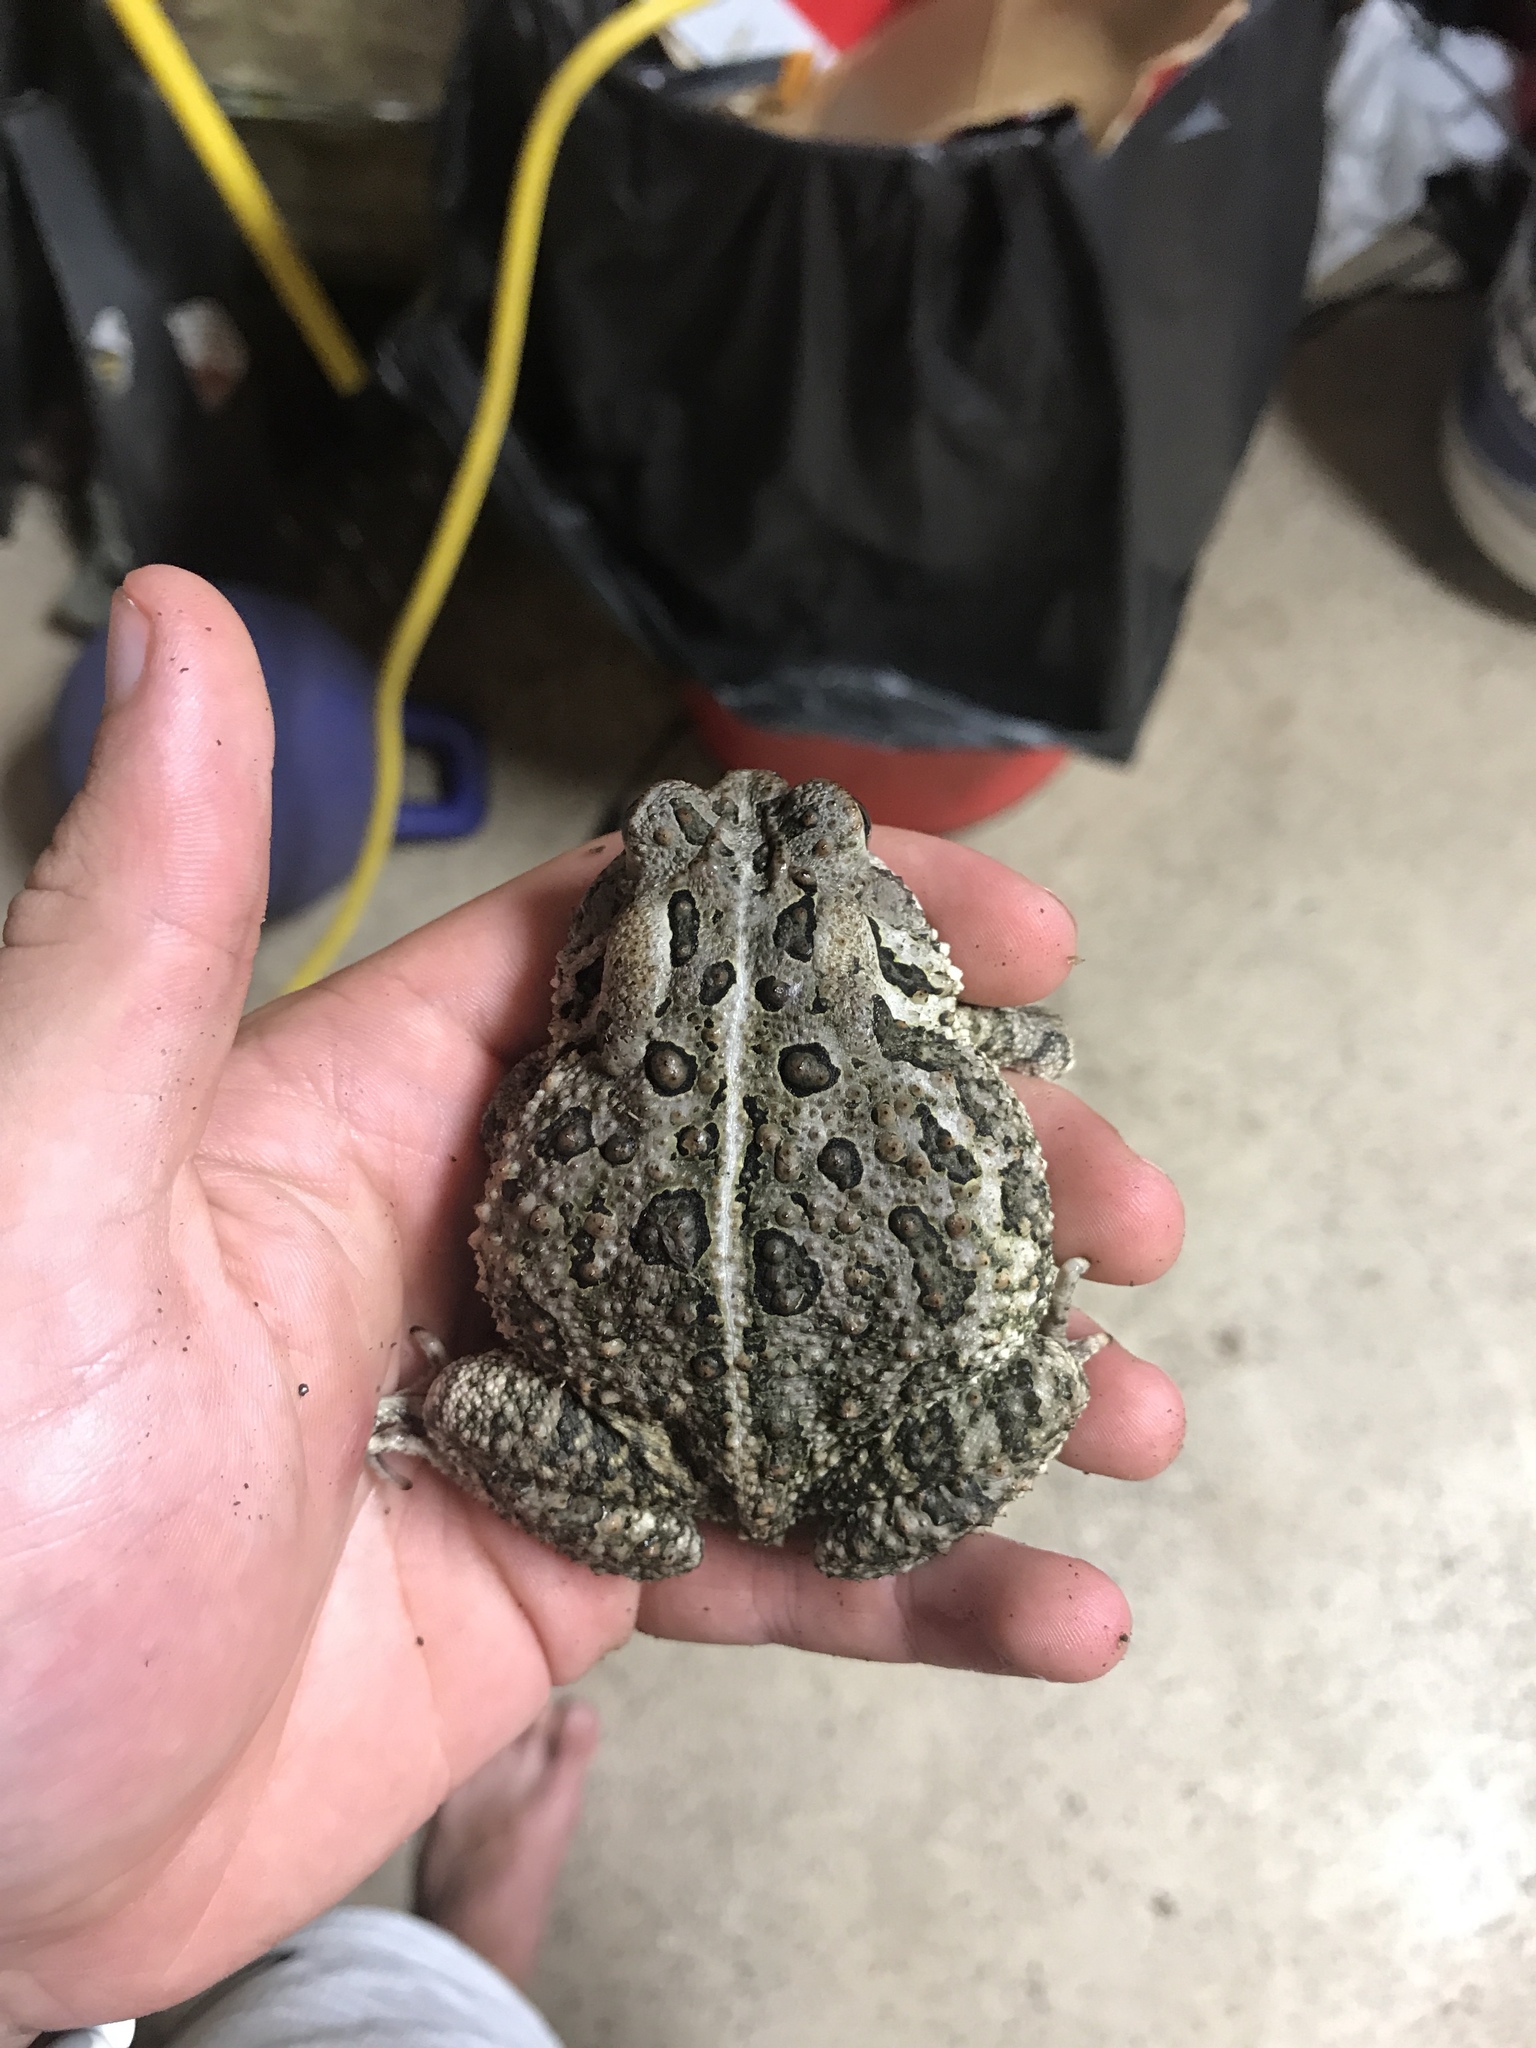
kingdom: Animalia
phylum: Chordata
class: Amphibia
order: Anura
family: Bufonidae
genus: Anaxyrus
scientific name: Anaxyrus americanus
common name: American toad
